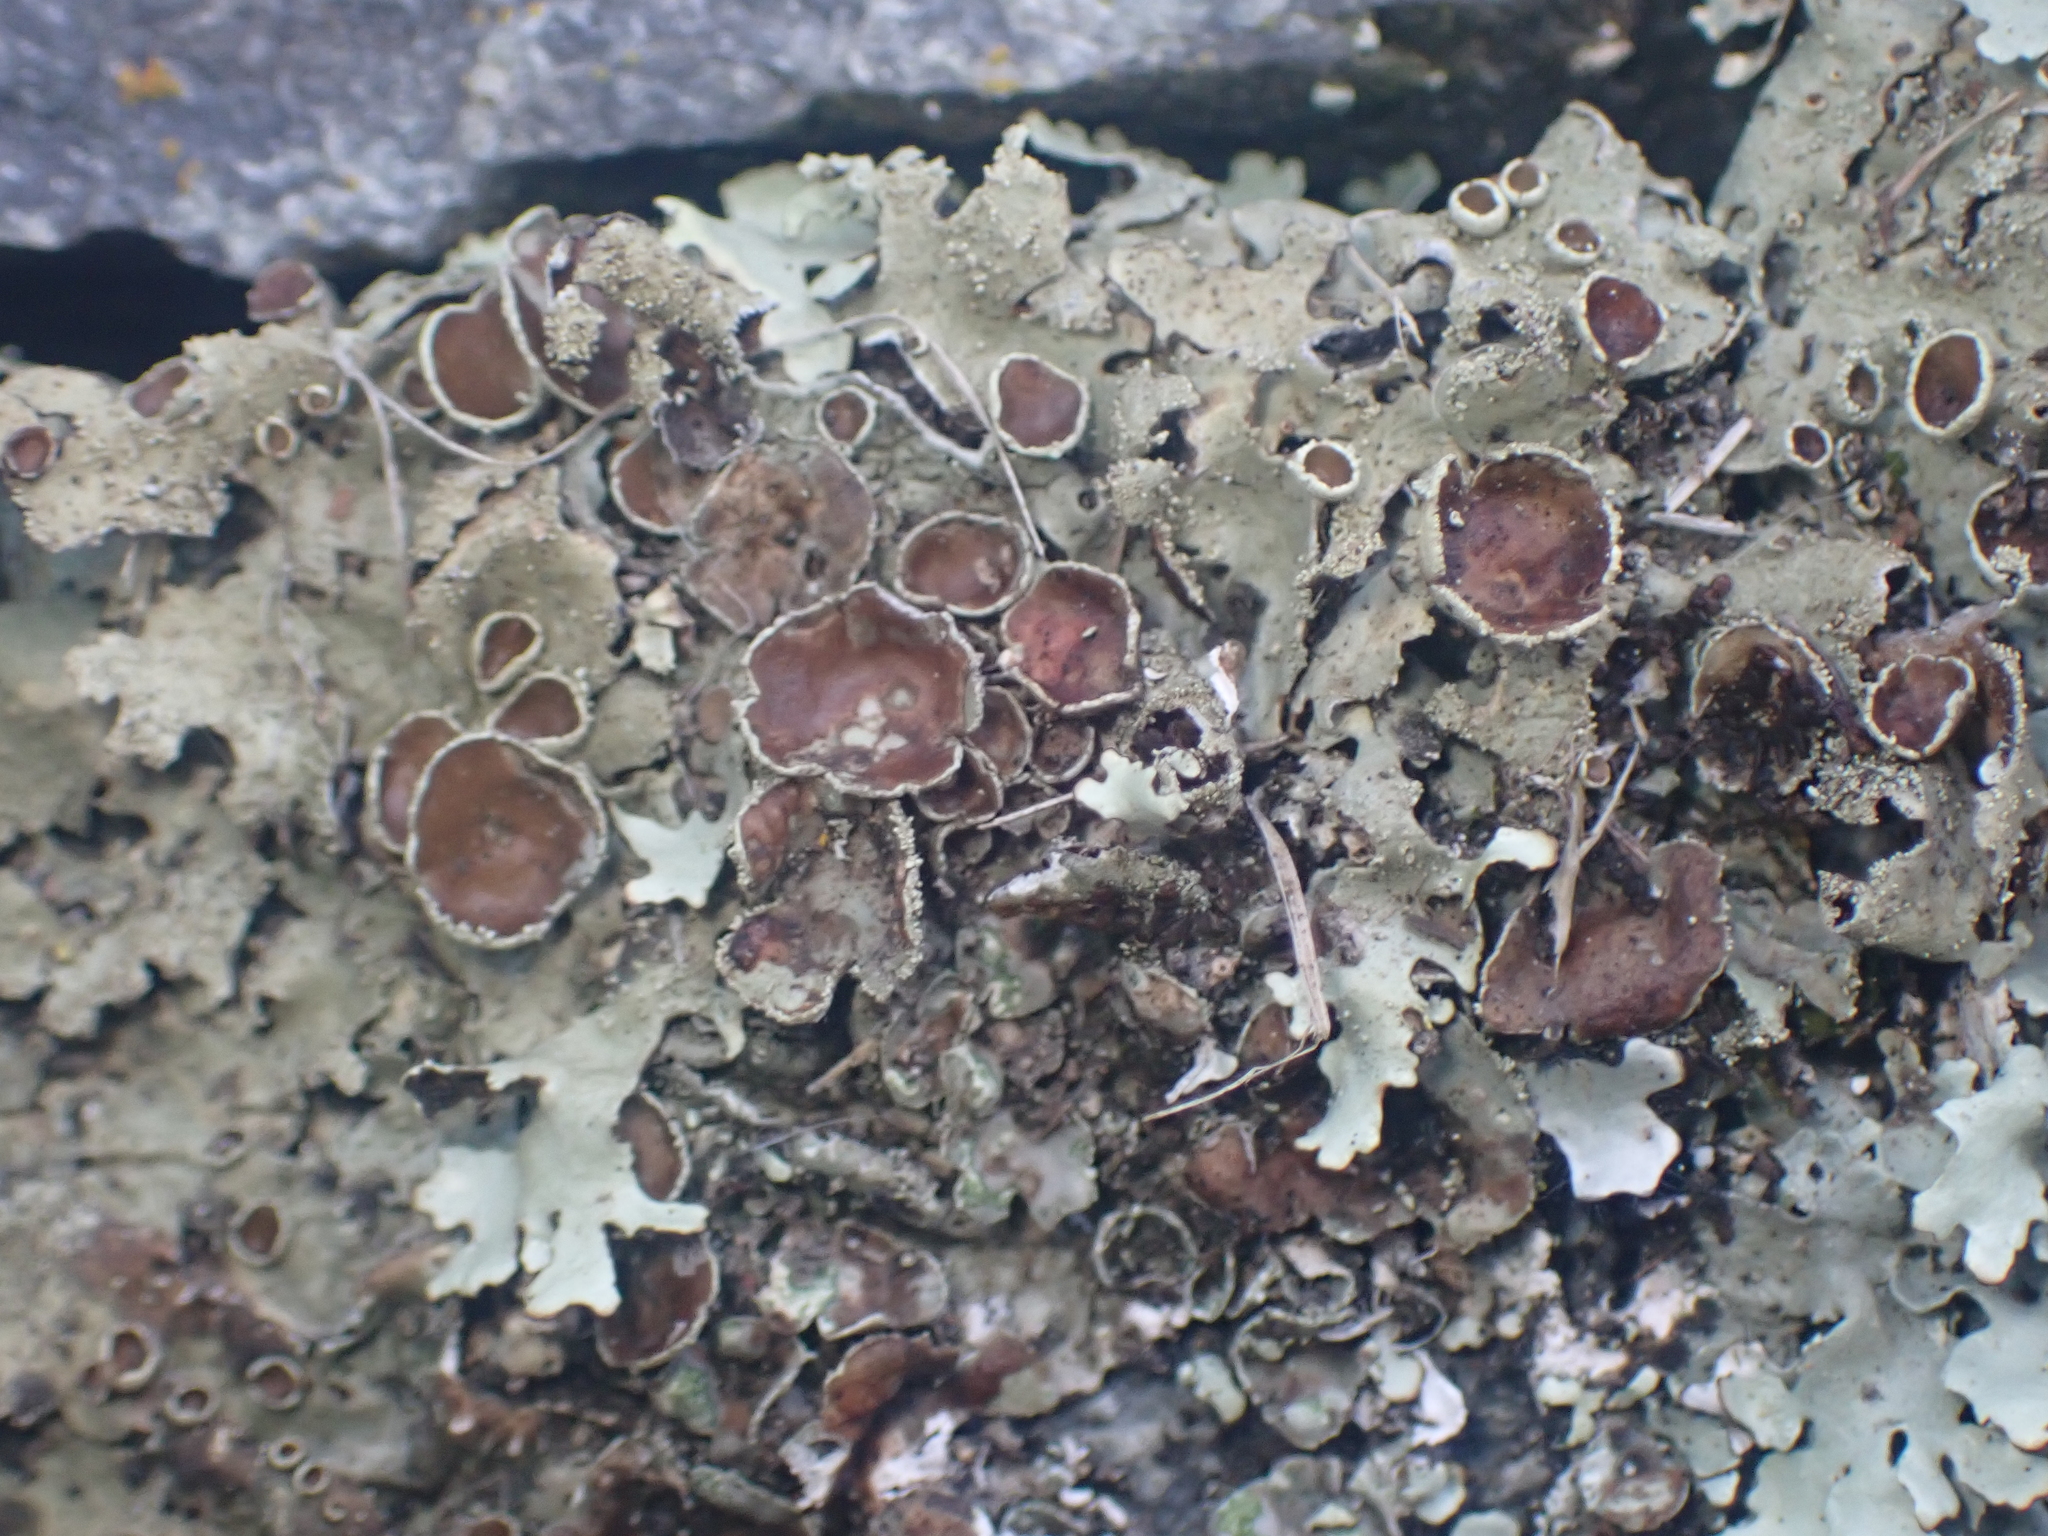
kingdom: Fungi
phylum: Ascomycota
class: Lecanoromycetes
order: Lecanorales
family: Parmeliaceae
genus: Xanthoparmelia
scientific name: Xanthoparmelia scabrosa
